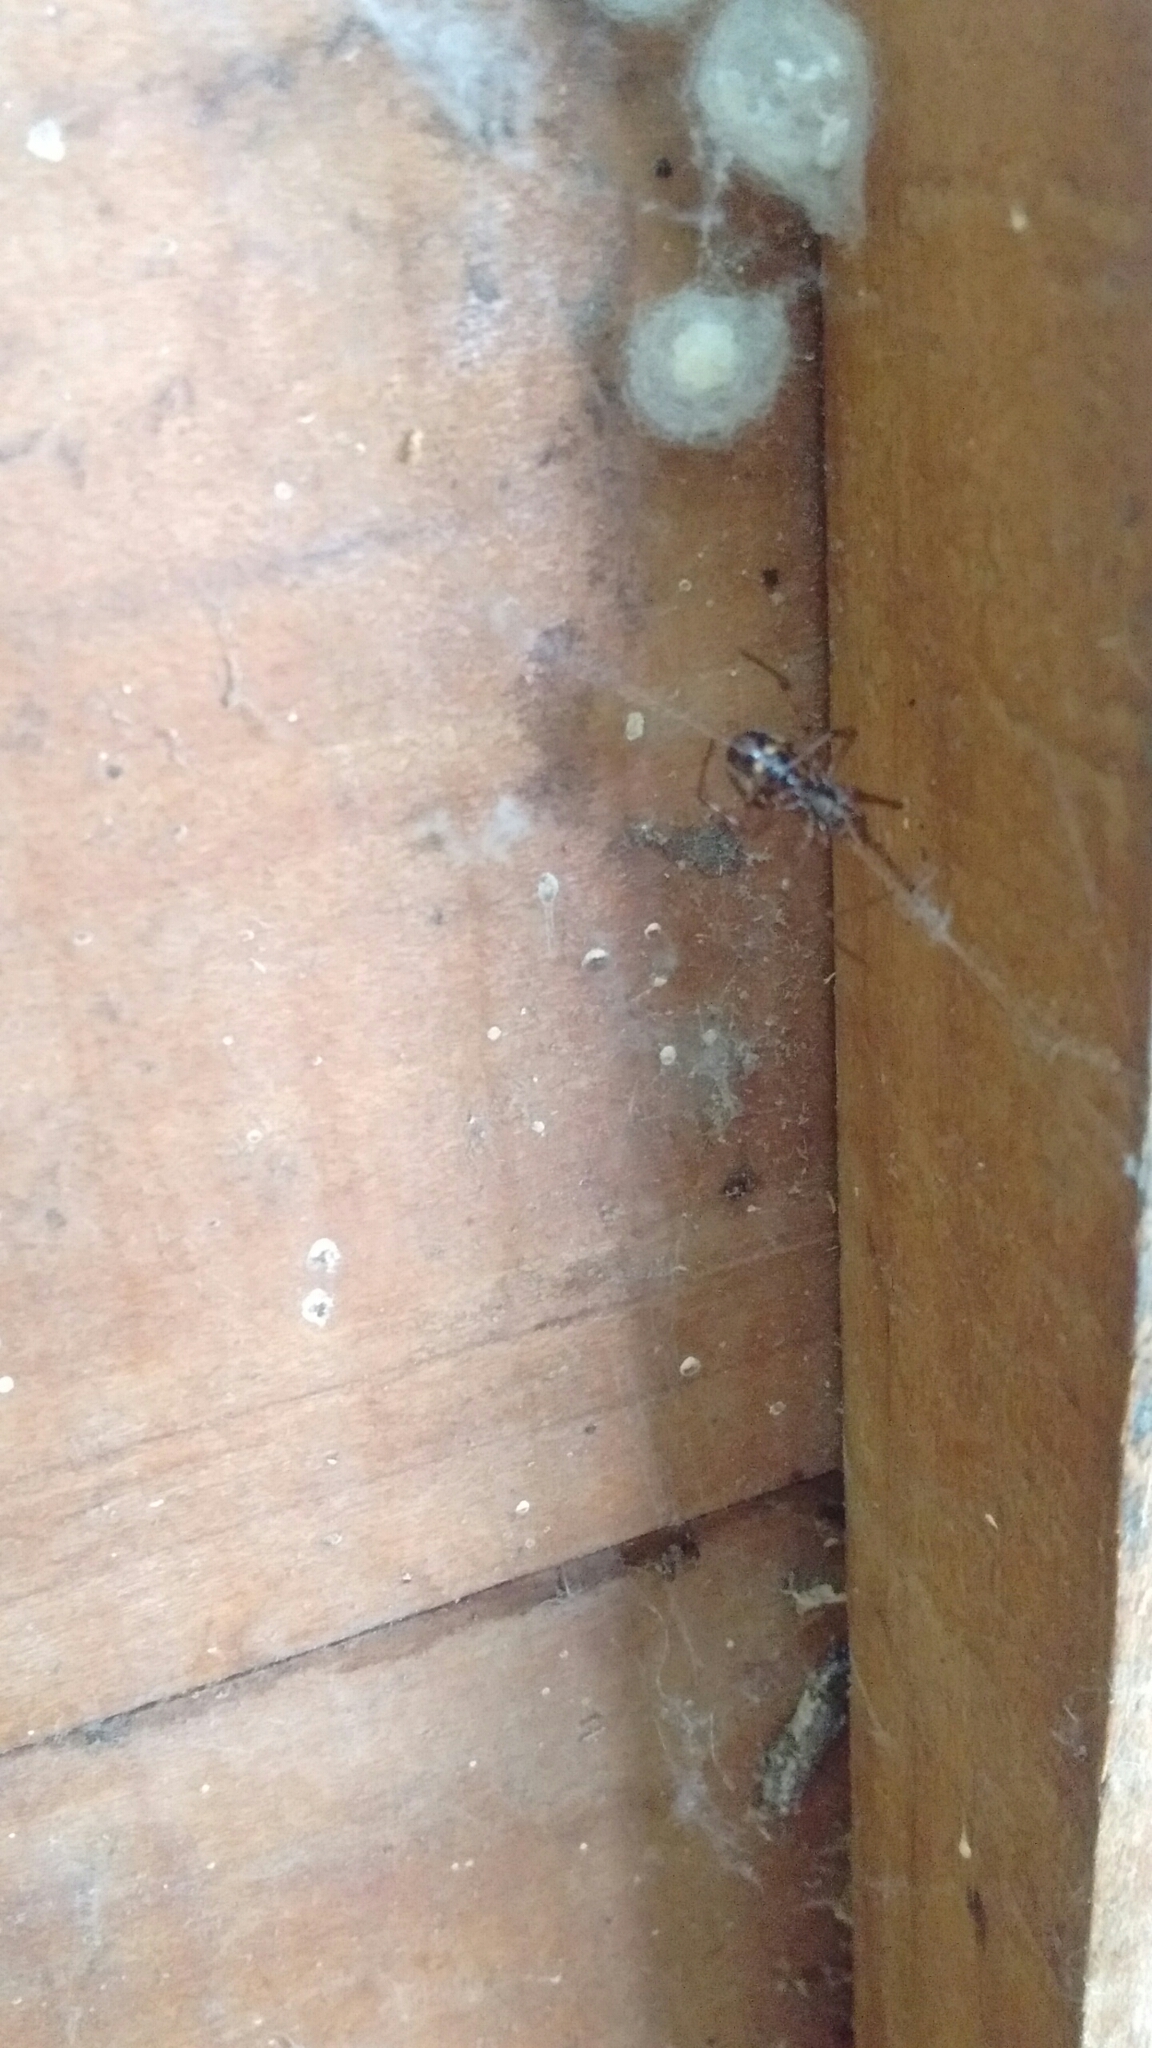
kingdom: Animalia
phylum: Arthropoda
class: Arachnida
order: Araneae
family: Theridiidae
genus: Steatoda
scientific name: Steatoda triangulosa
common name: Triangulate bud spider
